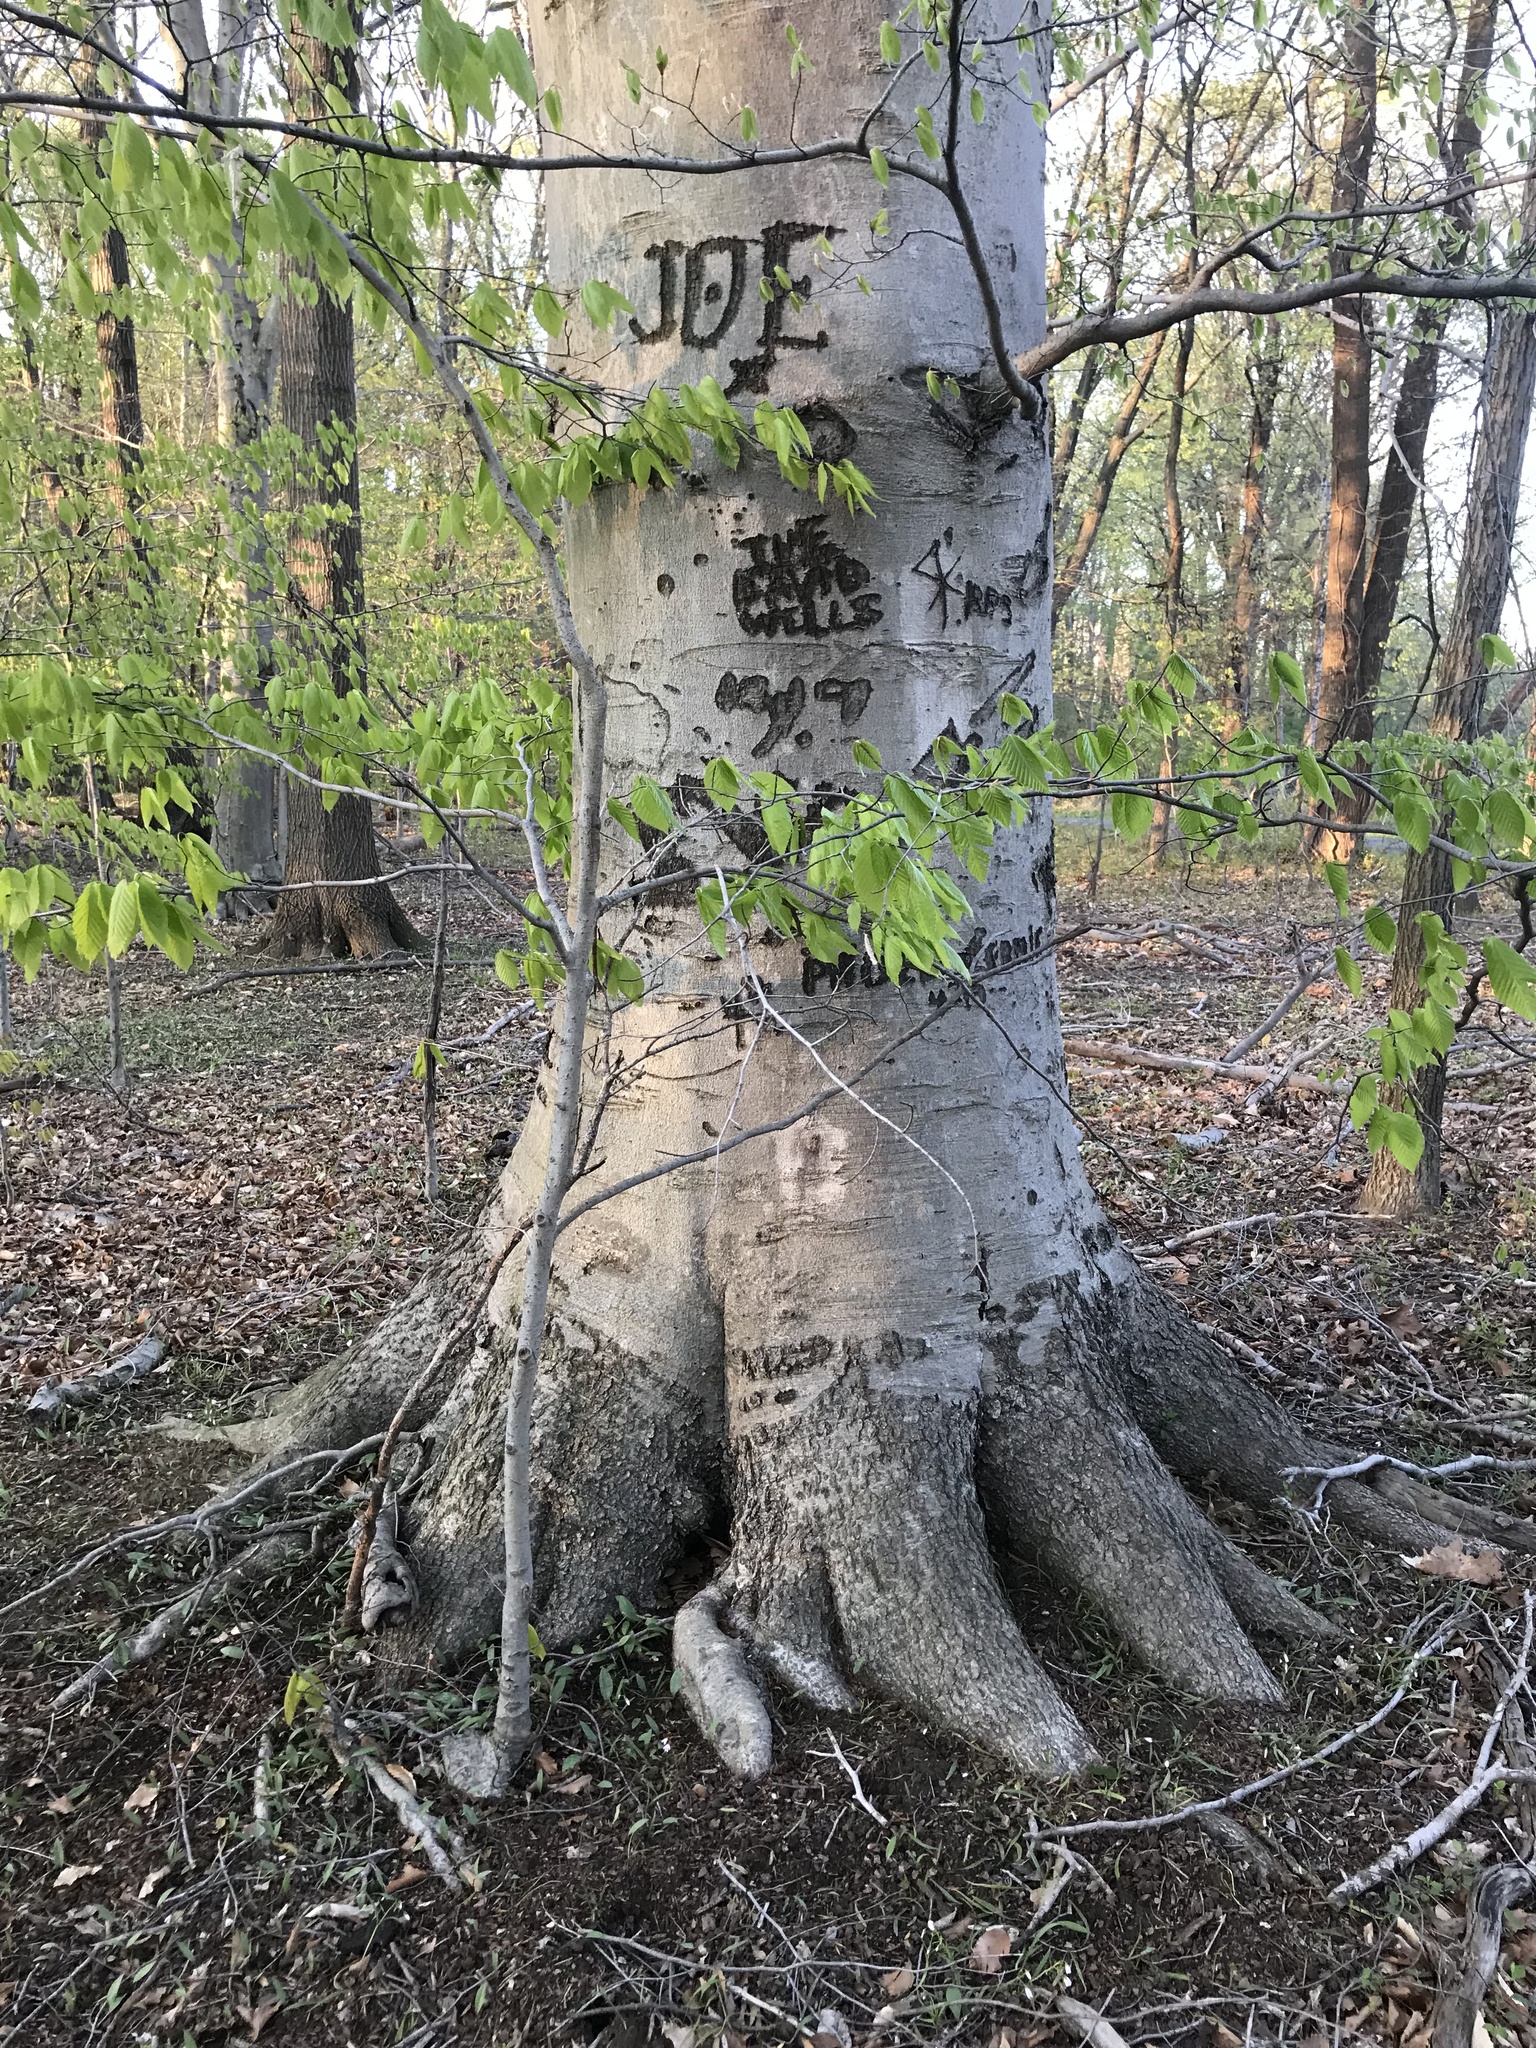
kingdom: Plantae
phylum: Tracheophyta
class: Magnoliopsida
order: Fagales
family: Fagaceae
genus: Fagus
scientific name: Fagus grandifolia
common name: American beech
